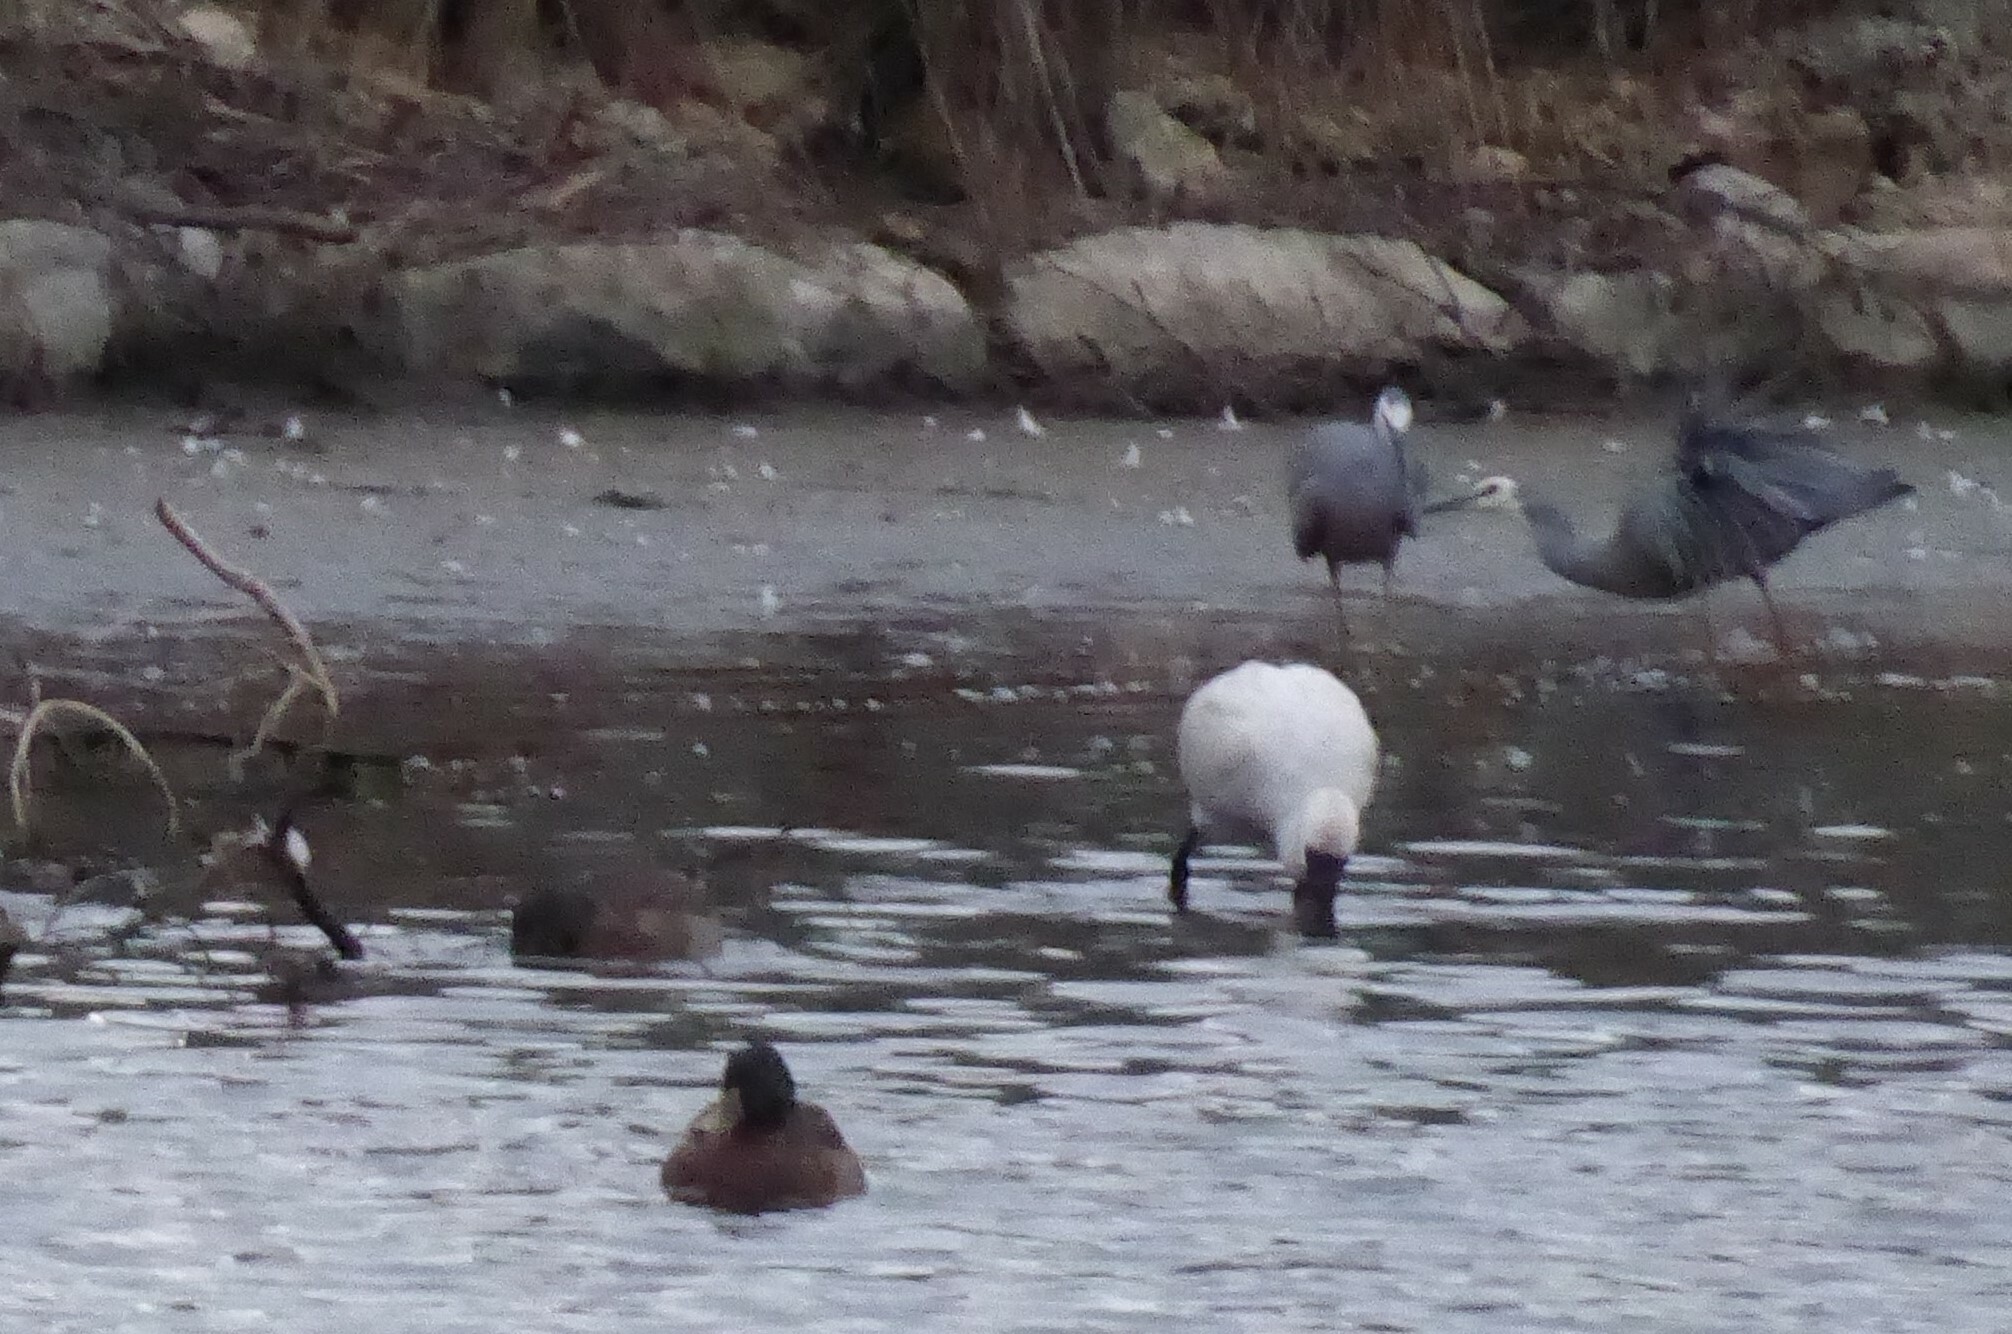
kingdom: Animalia
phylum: Chordata
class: Aves
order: Pelecaniformes
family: Ardeidae
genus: Egretta
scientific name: Egretta novaehollandiae
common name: White-faced heron
